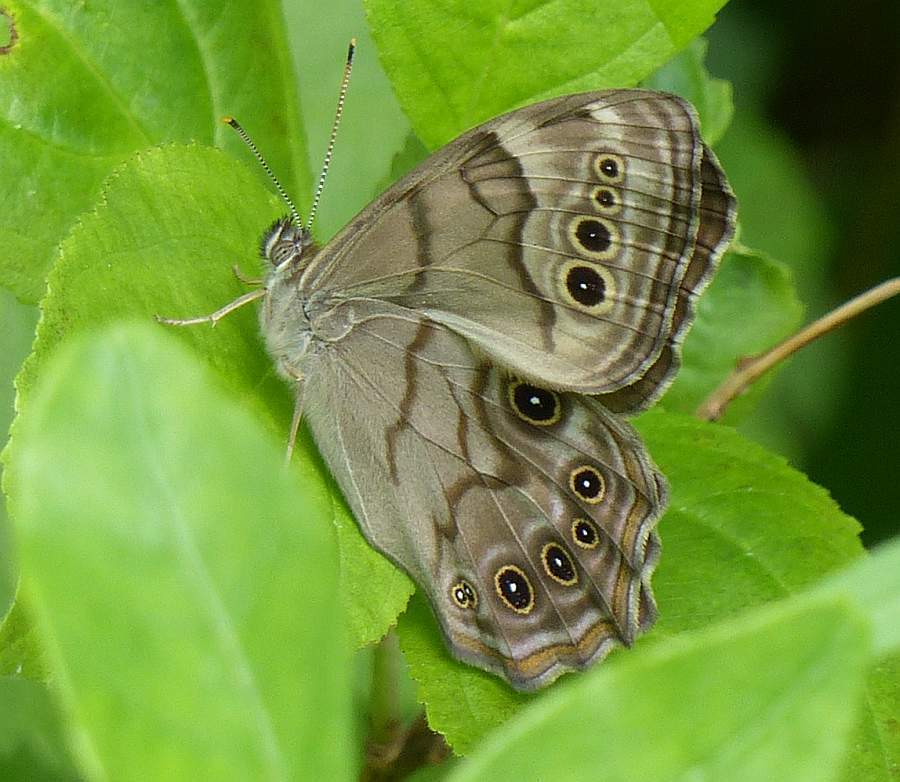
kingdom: Animalia
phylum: Arthropoda
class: Insecta
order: Lepidoptera
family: Nymphalidae
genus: Lethe
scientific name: Lethe anthedon
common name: Northern pearly-eye
